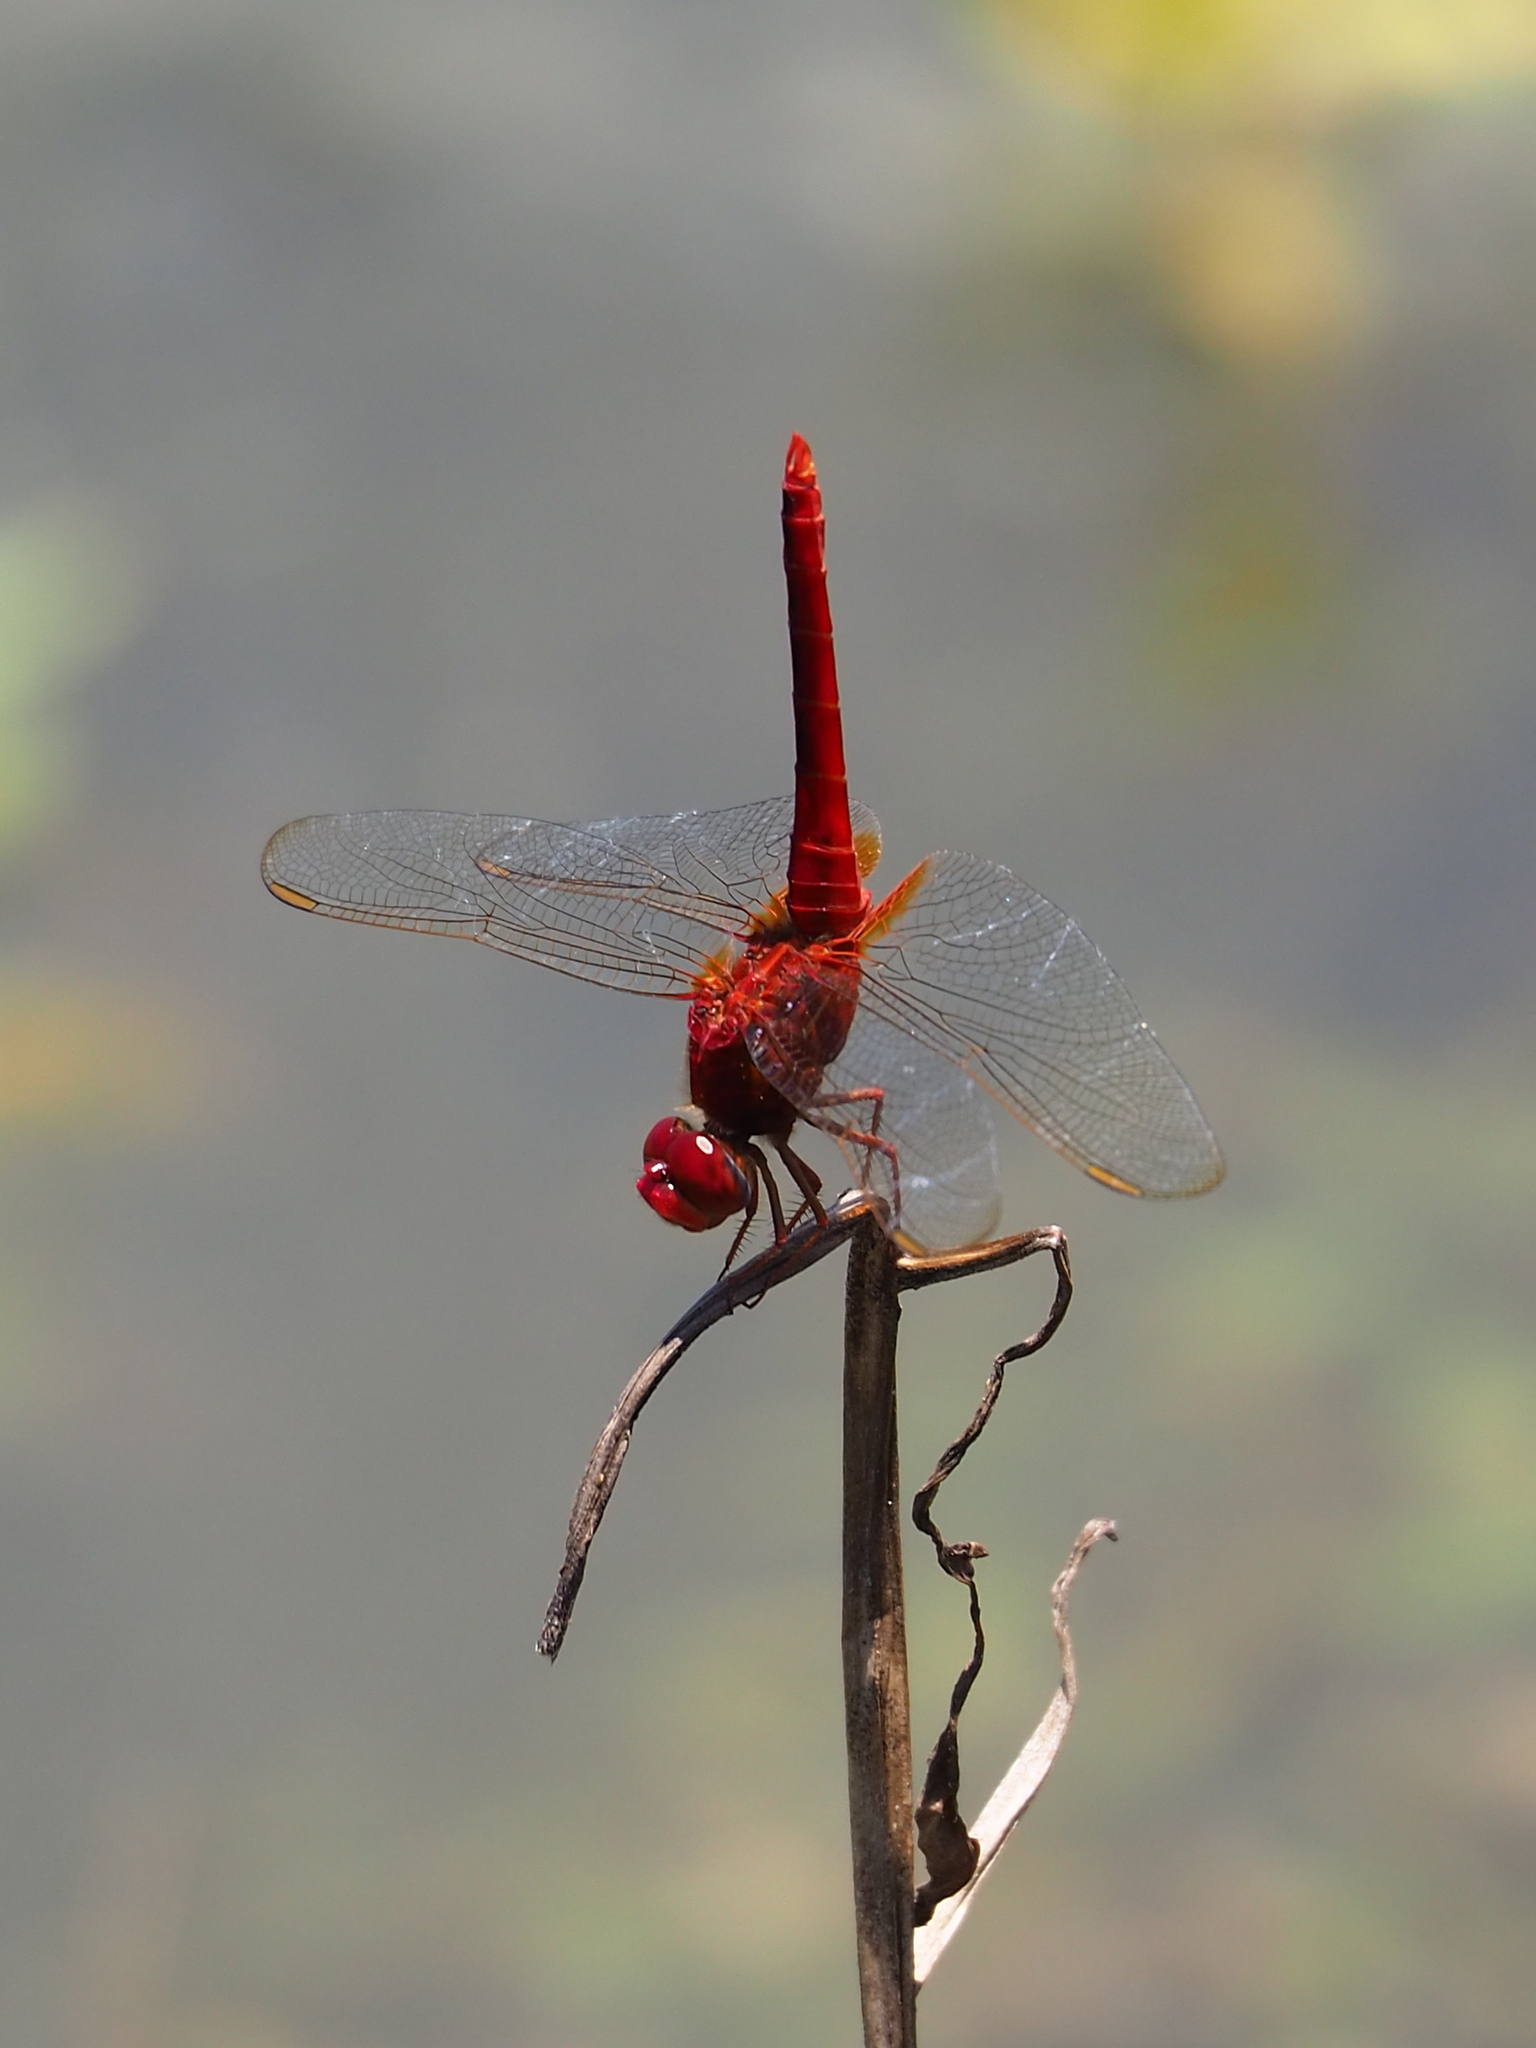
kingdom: Animalia
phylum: Arthropoda
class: Insecta
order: Odonata
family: Libellulidae
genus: Crocothemis
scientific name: Crocothemis servilia
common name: Scarlet skimmer
